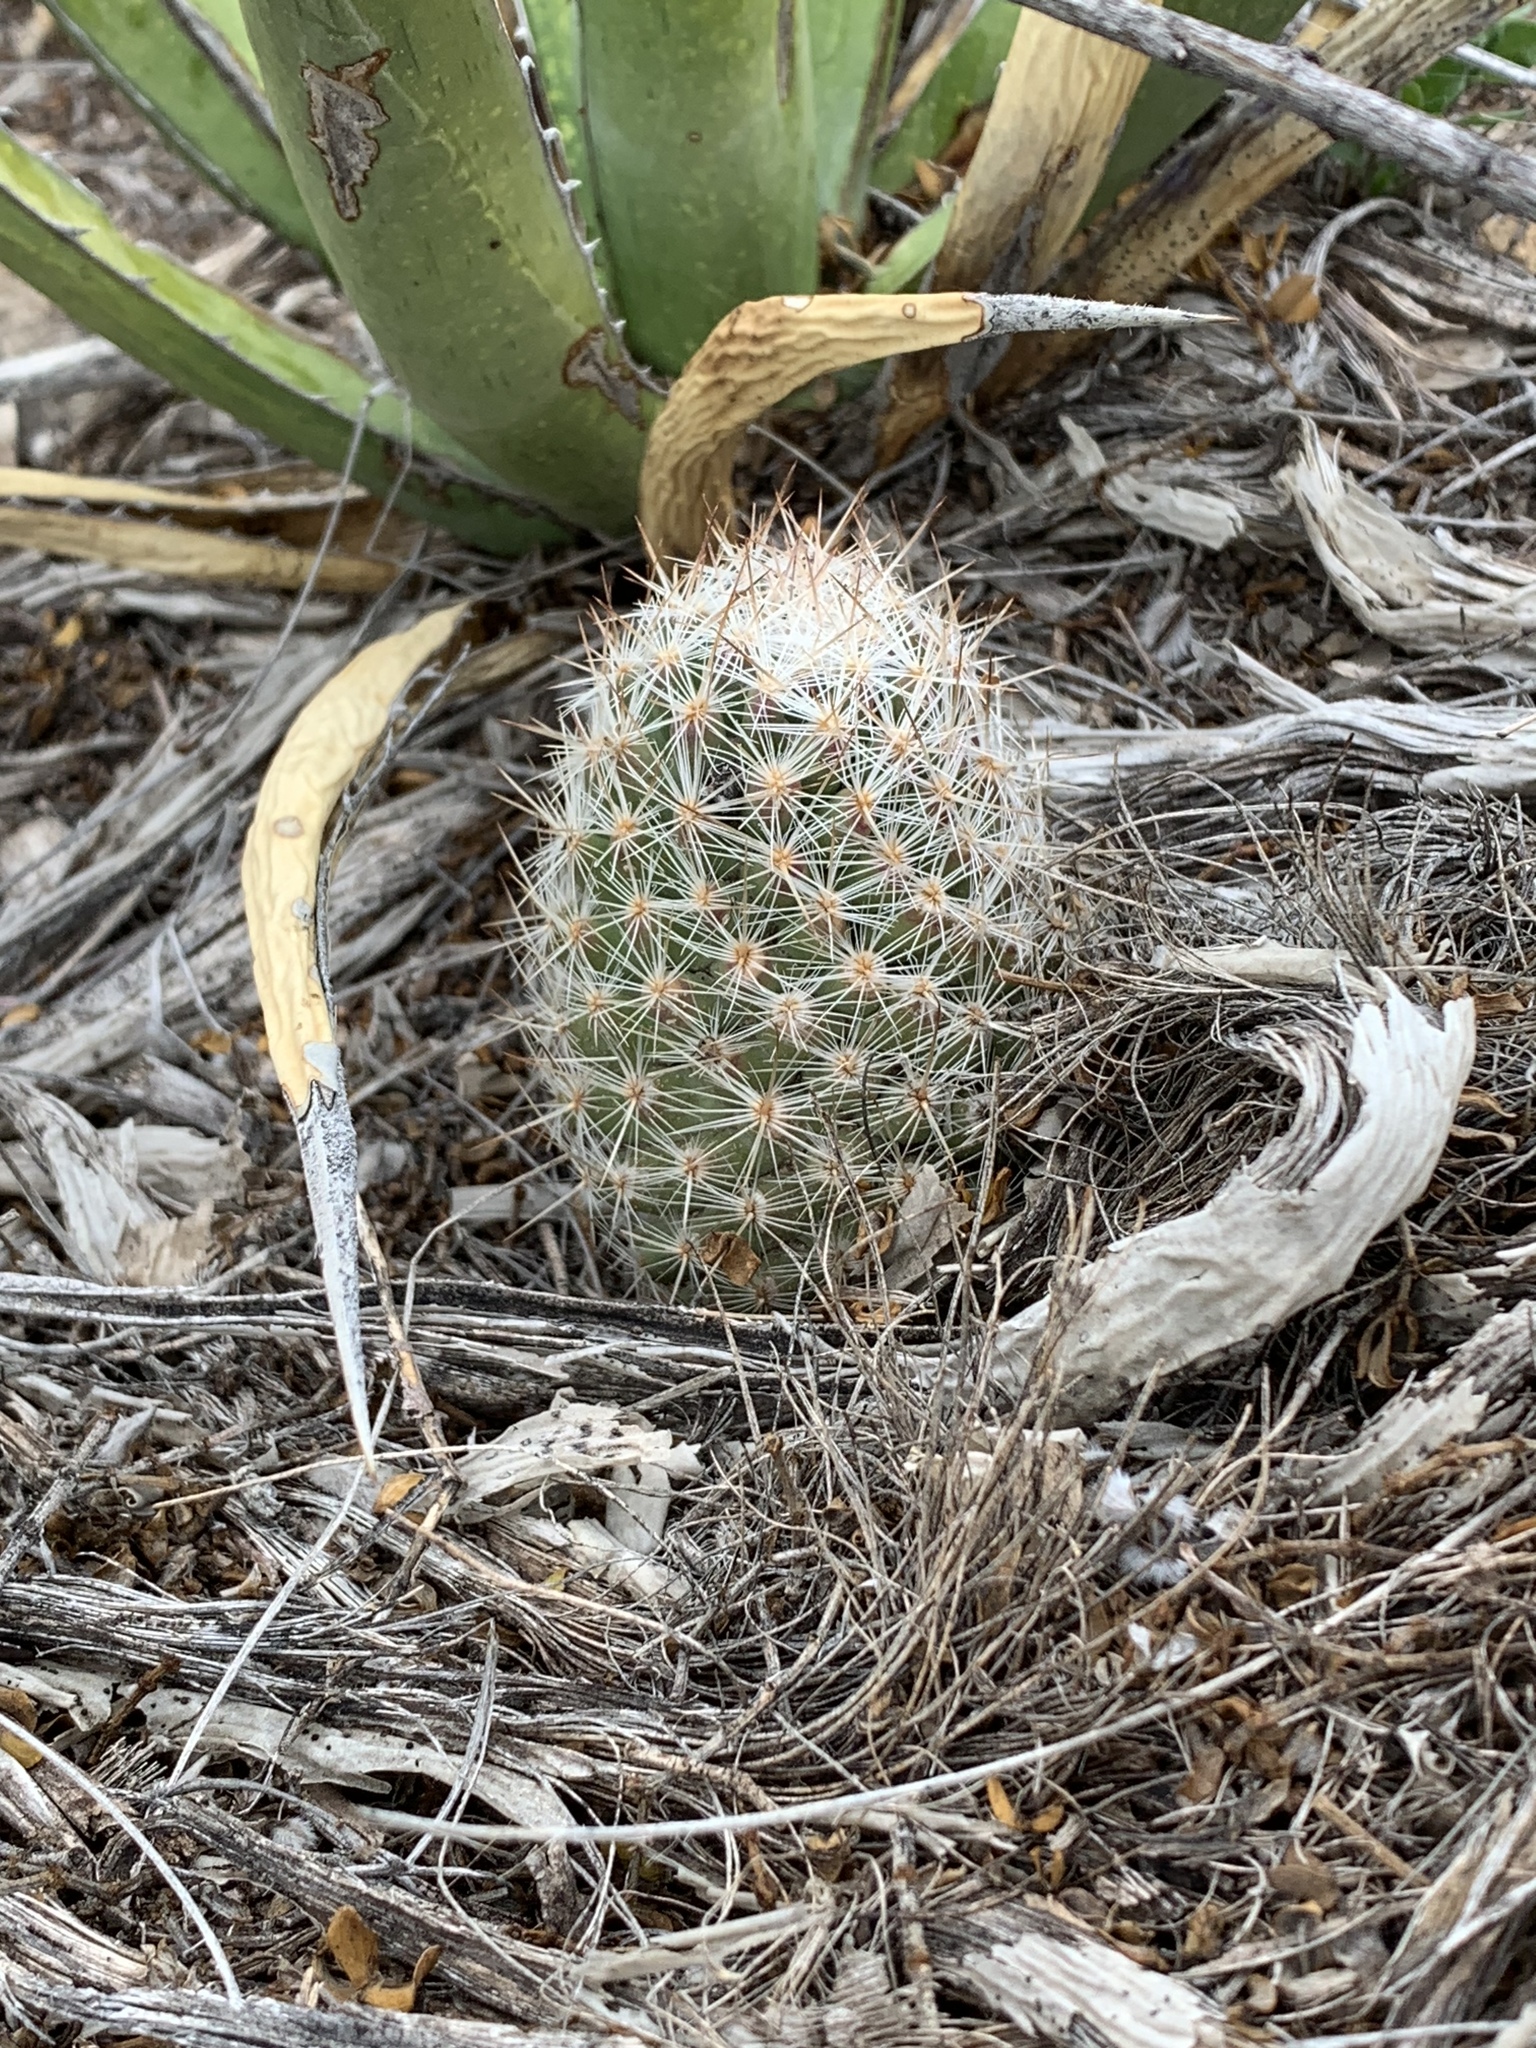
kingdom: Plantae
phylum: Tracheophyta
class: Magnoliopsida
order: Caryophyllales
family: Cactaceae
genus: Pelecyphora
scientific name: Pelecyphora tuberculosa
